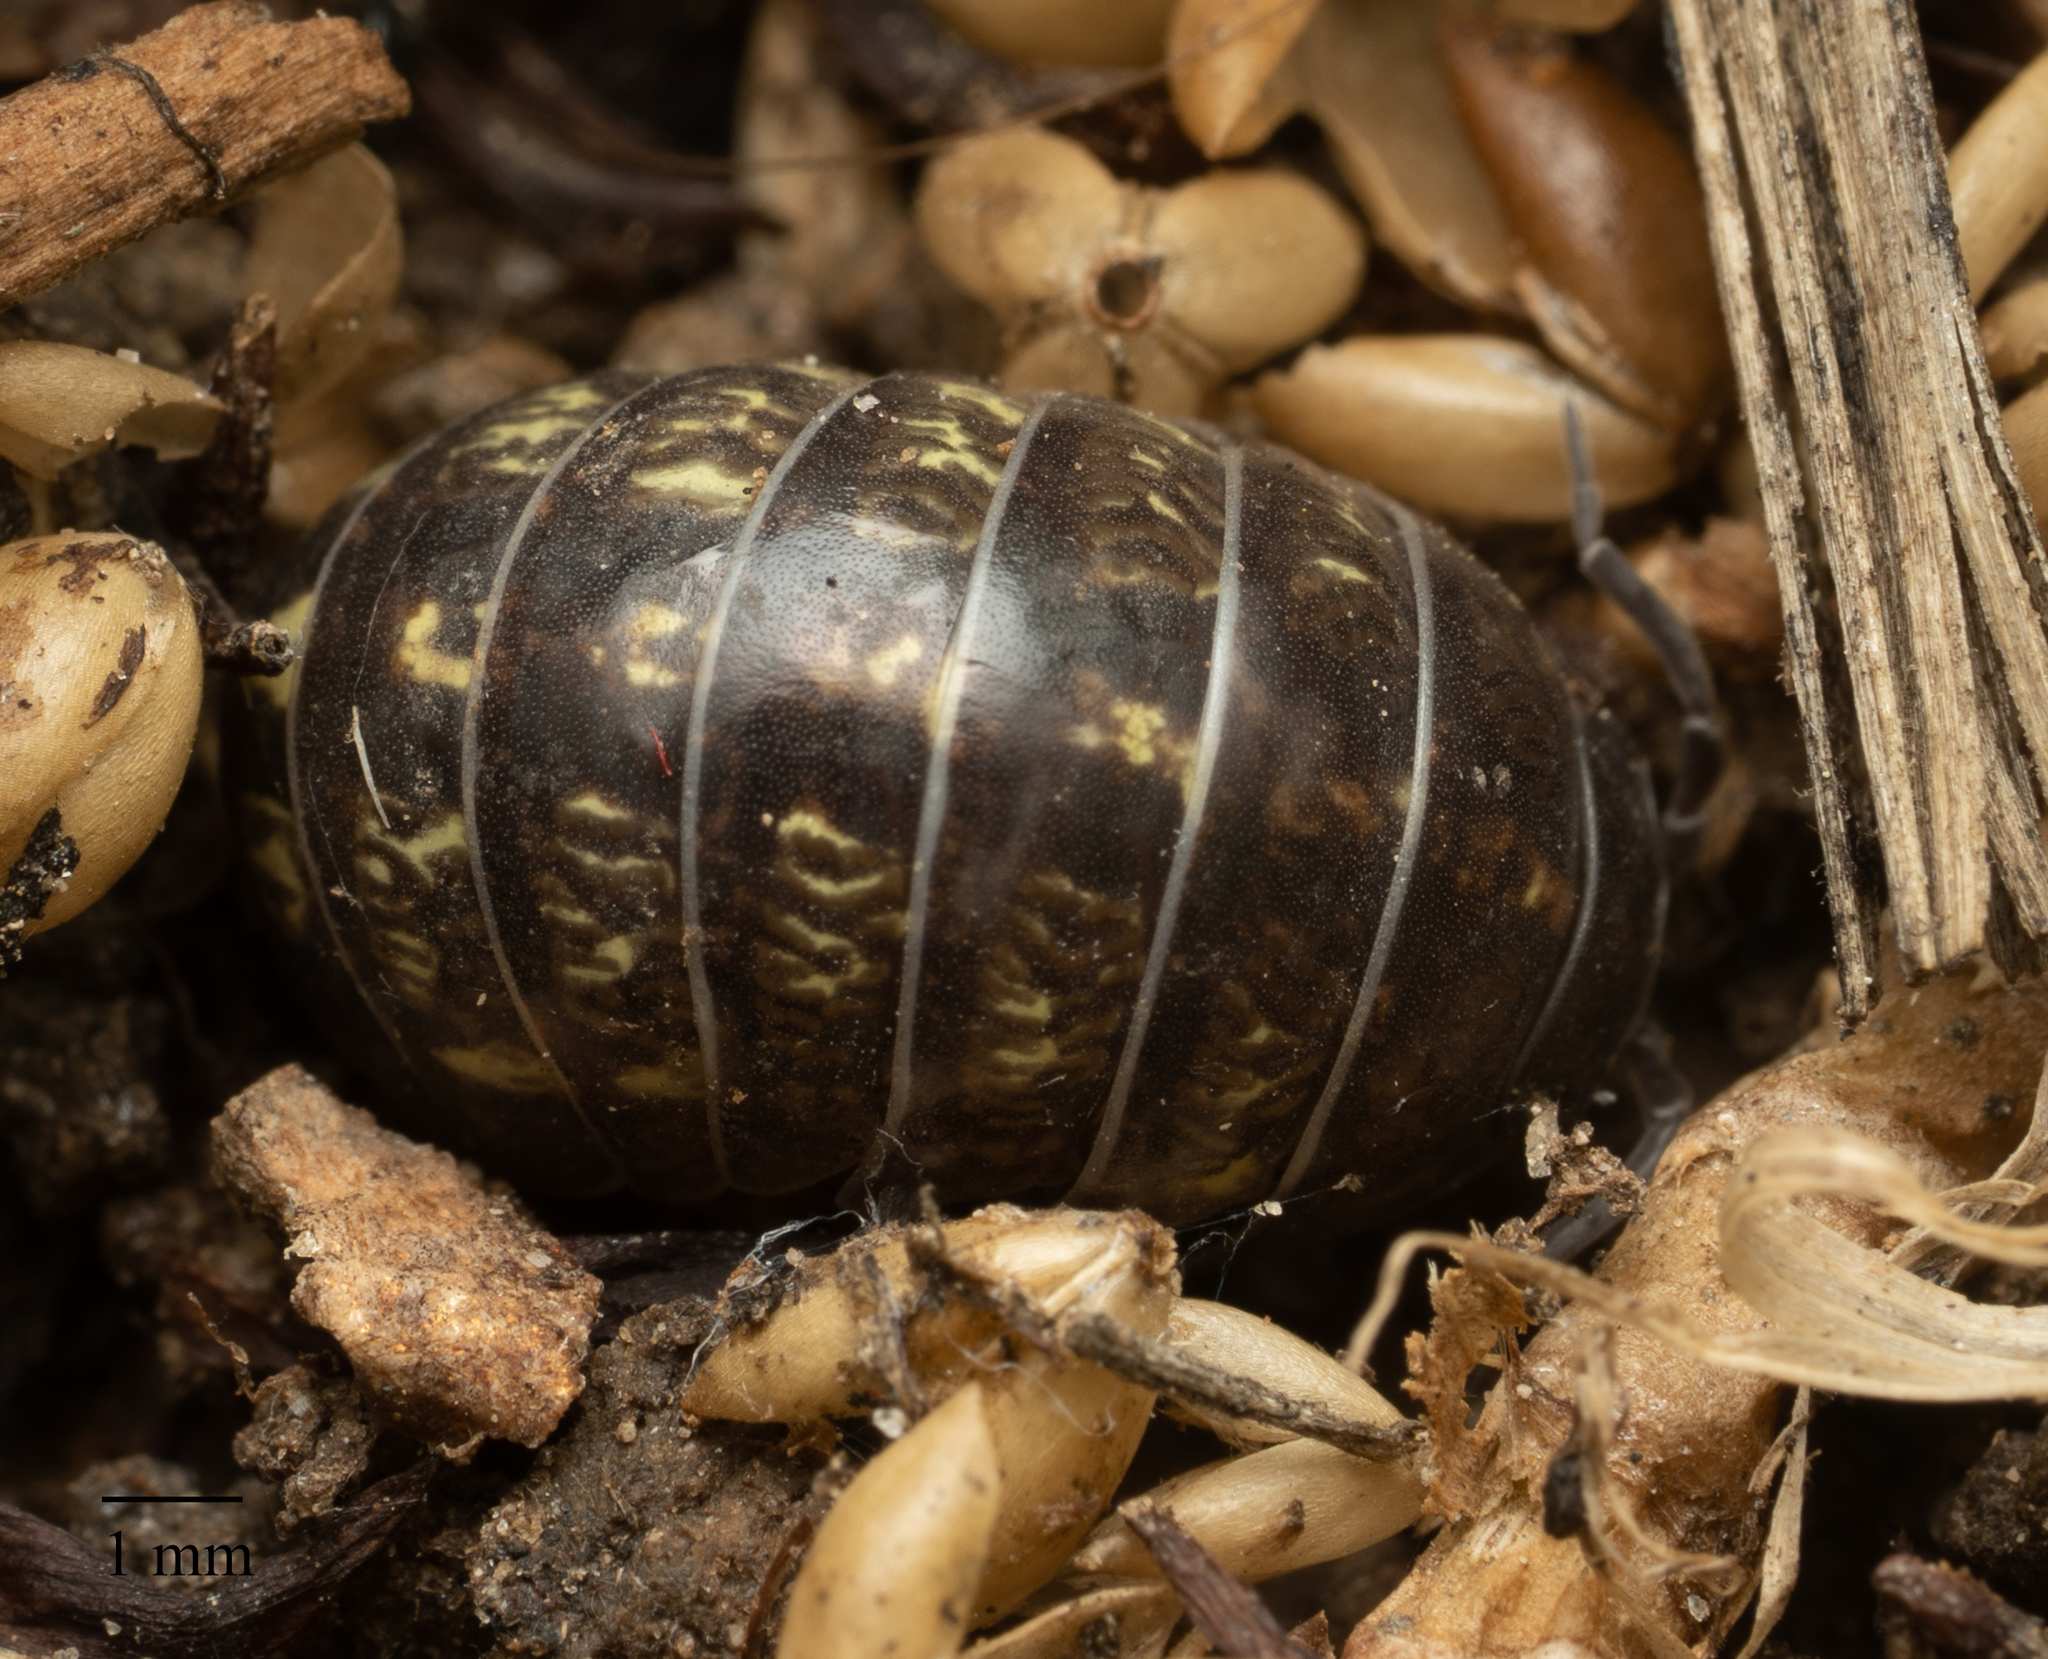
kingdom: Animalia
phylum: Arthropoda
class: Malacostraca
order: Isopoda
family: Armadillidiidae
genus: Armadillidium
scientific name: Armadillidium vulgare
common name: Common pill woodlouse
